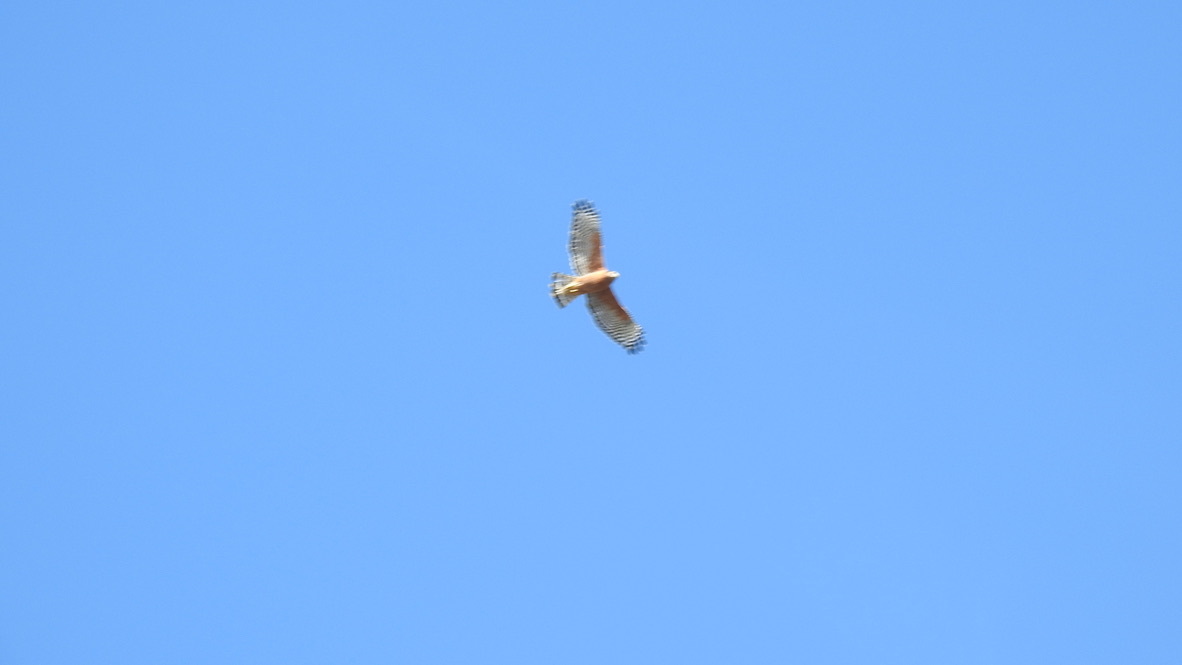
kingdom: Animalia
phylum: Chordata
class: Aves
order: Accipitriformes
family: Accipitridae
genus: Buteo
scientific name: Buteo lineatus
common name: Red-shouldered hawk
